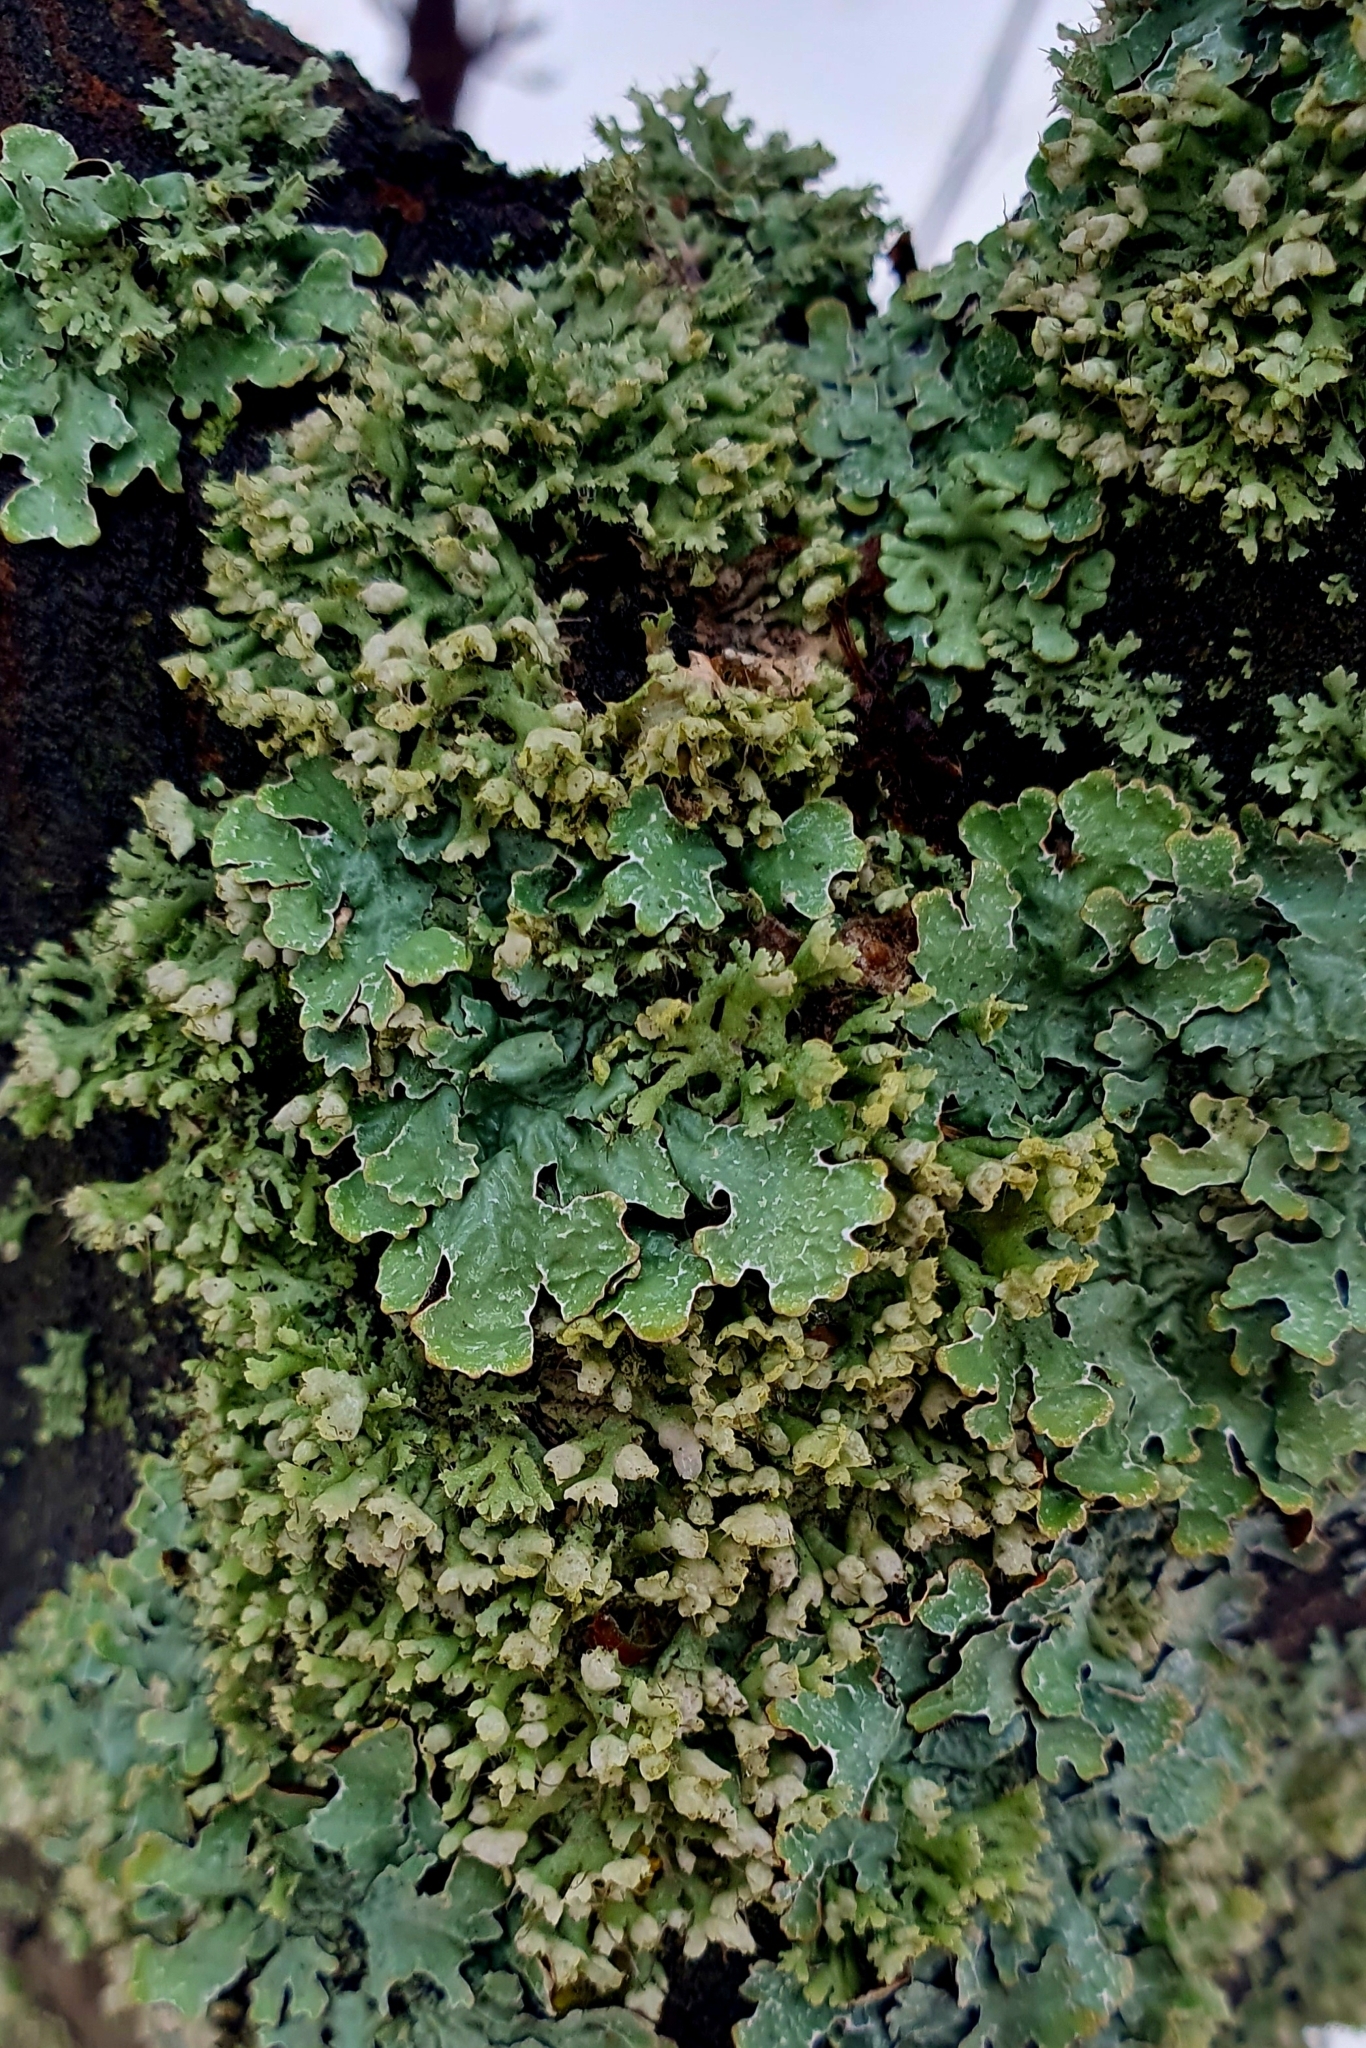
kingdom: Fungi
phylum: Ascomycota
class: Lecanoromycetes
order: Caliciales
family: Physciaceae
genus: Physcia
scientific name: Physcia adscendens
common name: Hooded rosette lichen
